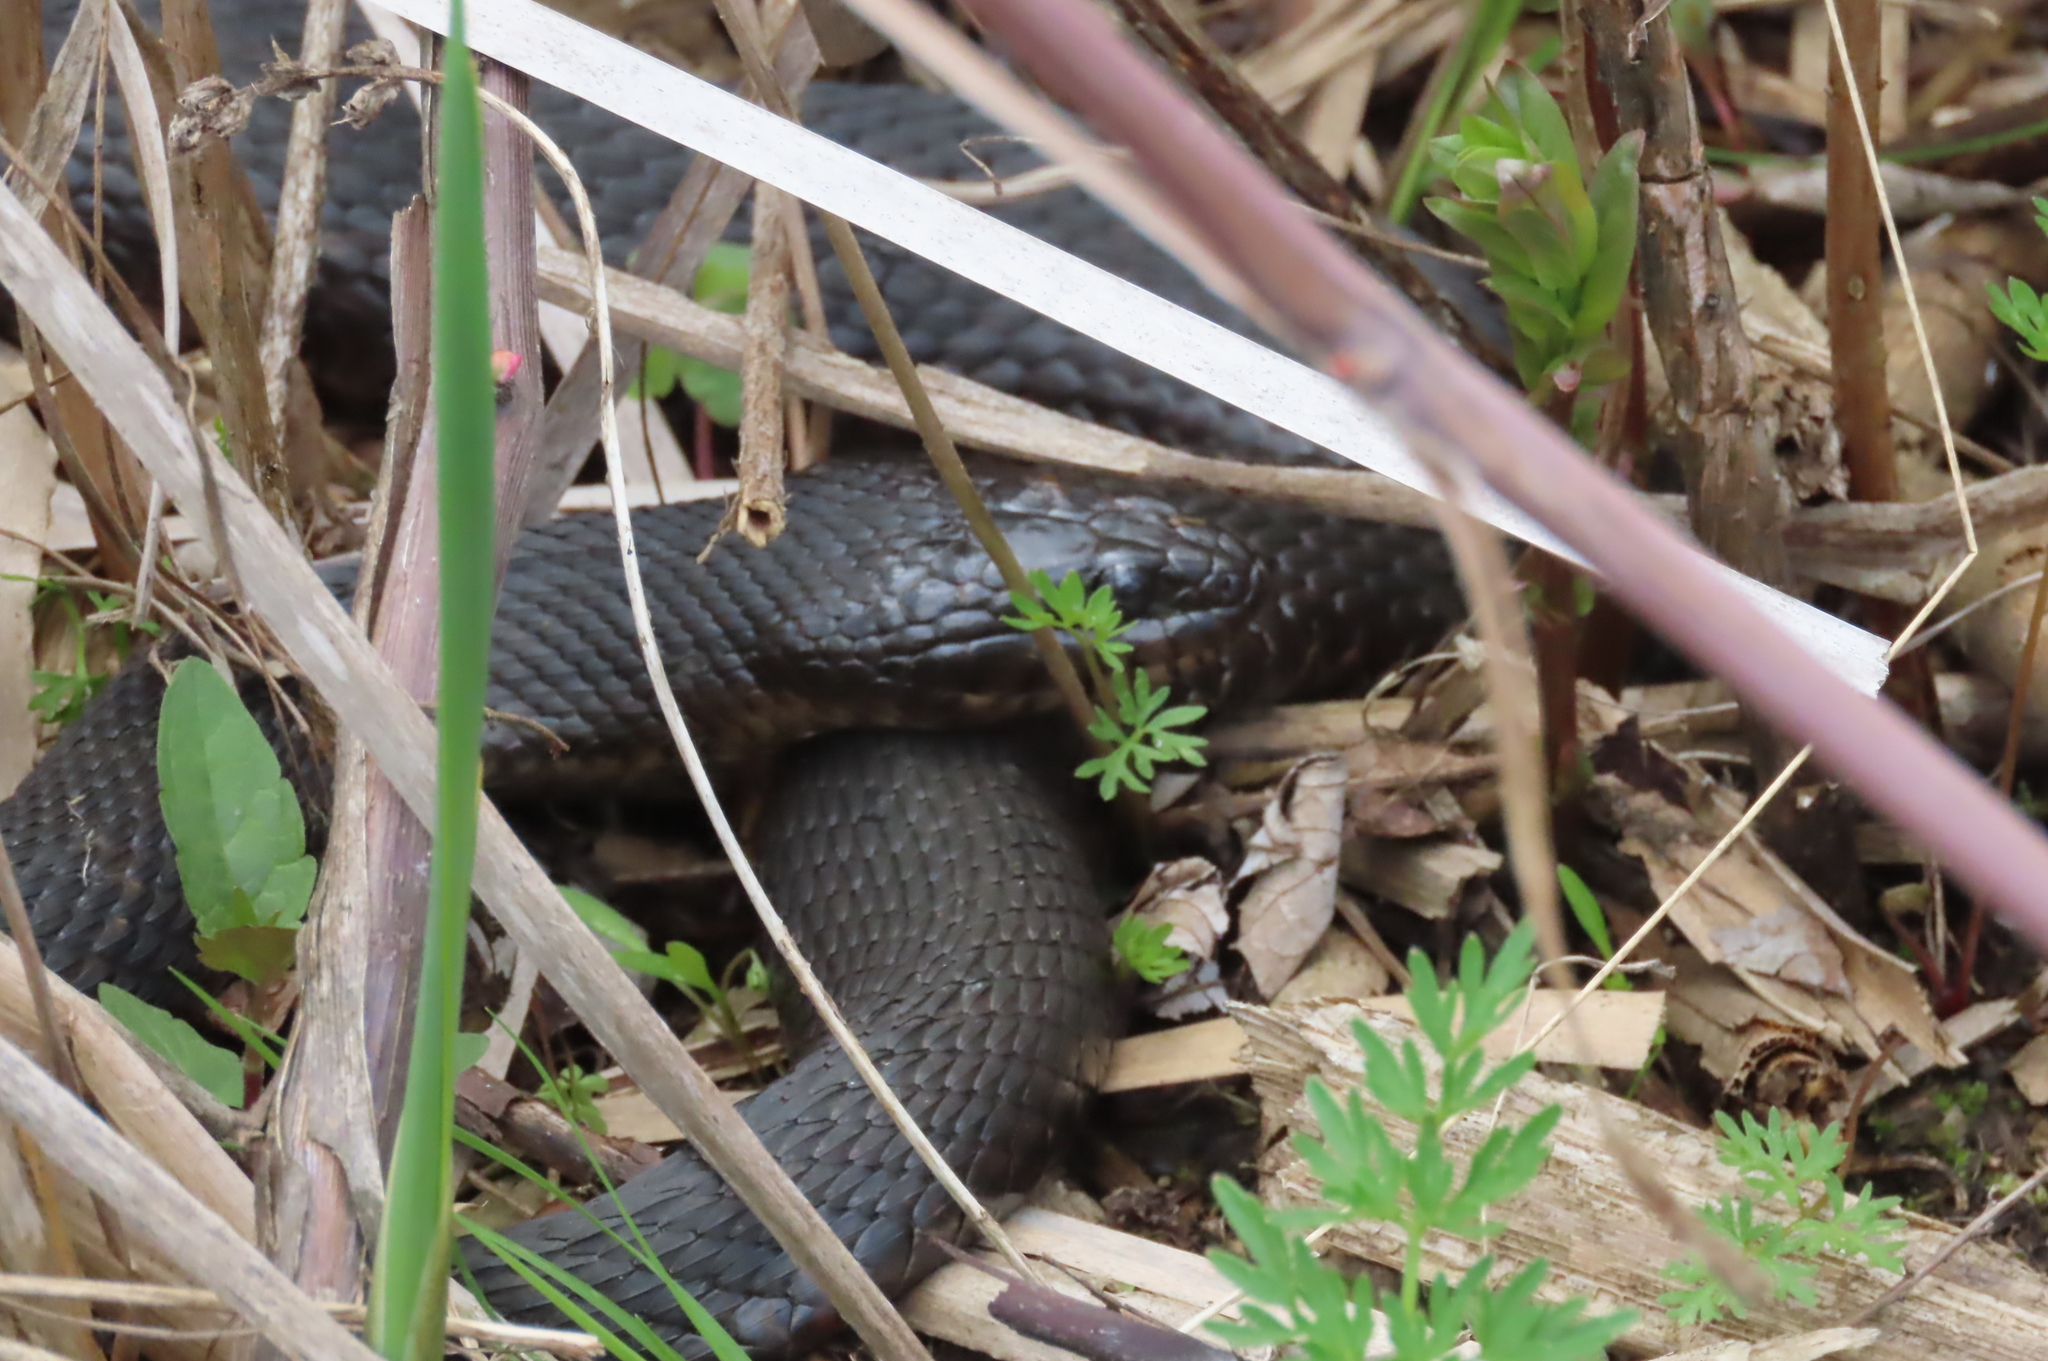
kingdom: Animalia
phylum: Chordata
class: Squamata
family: Colubridae
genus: Nerodia
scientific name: Nerodia sipedon
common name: Northern water snake
